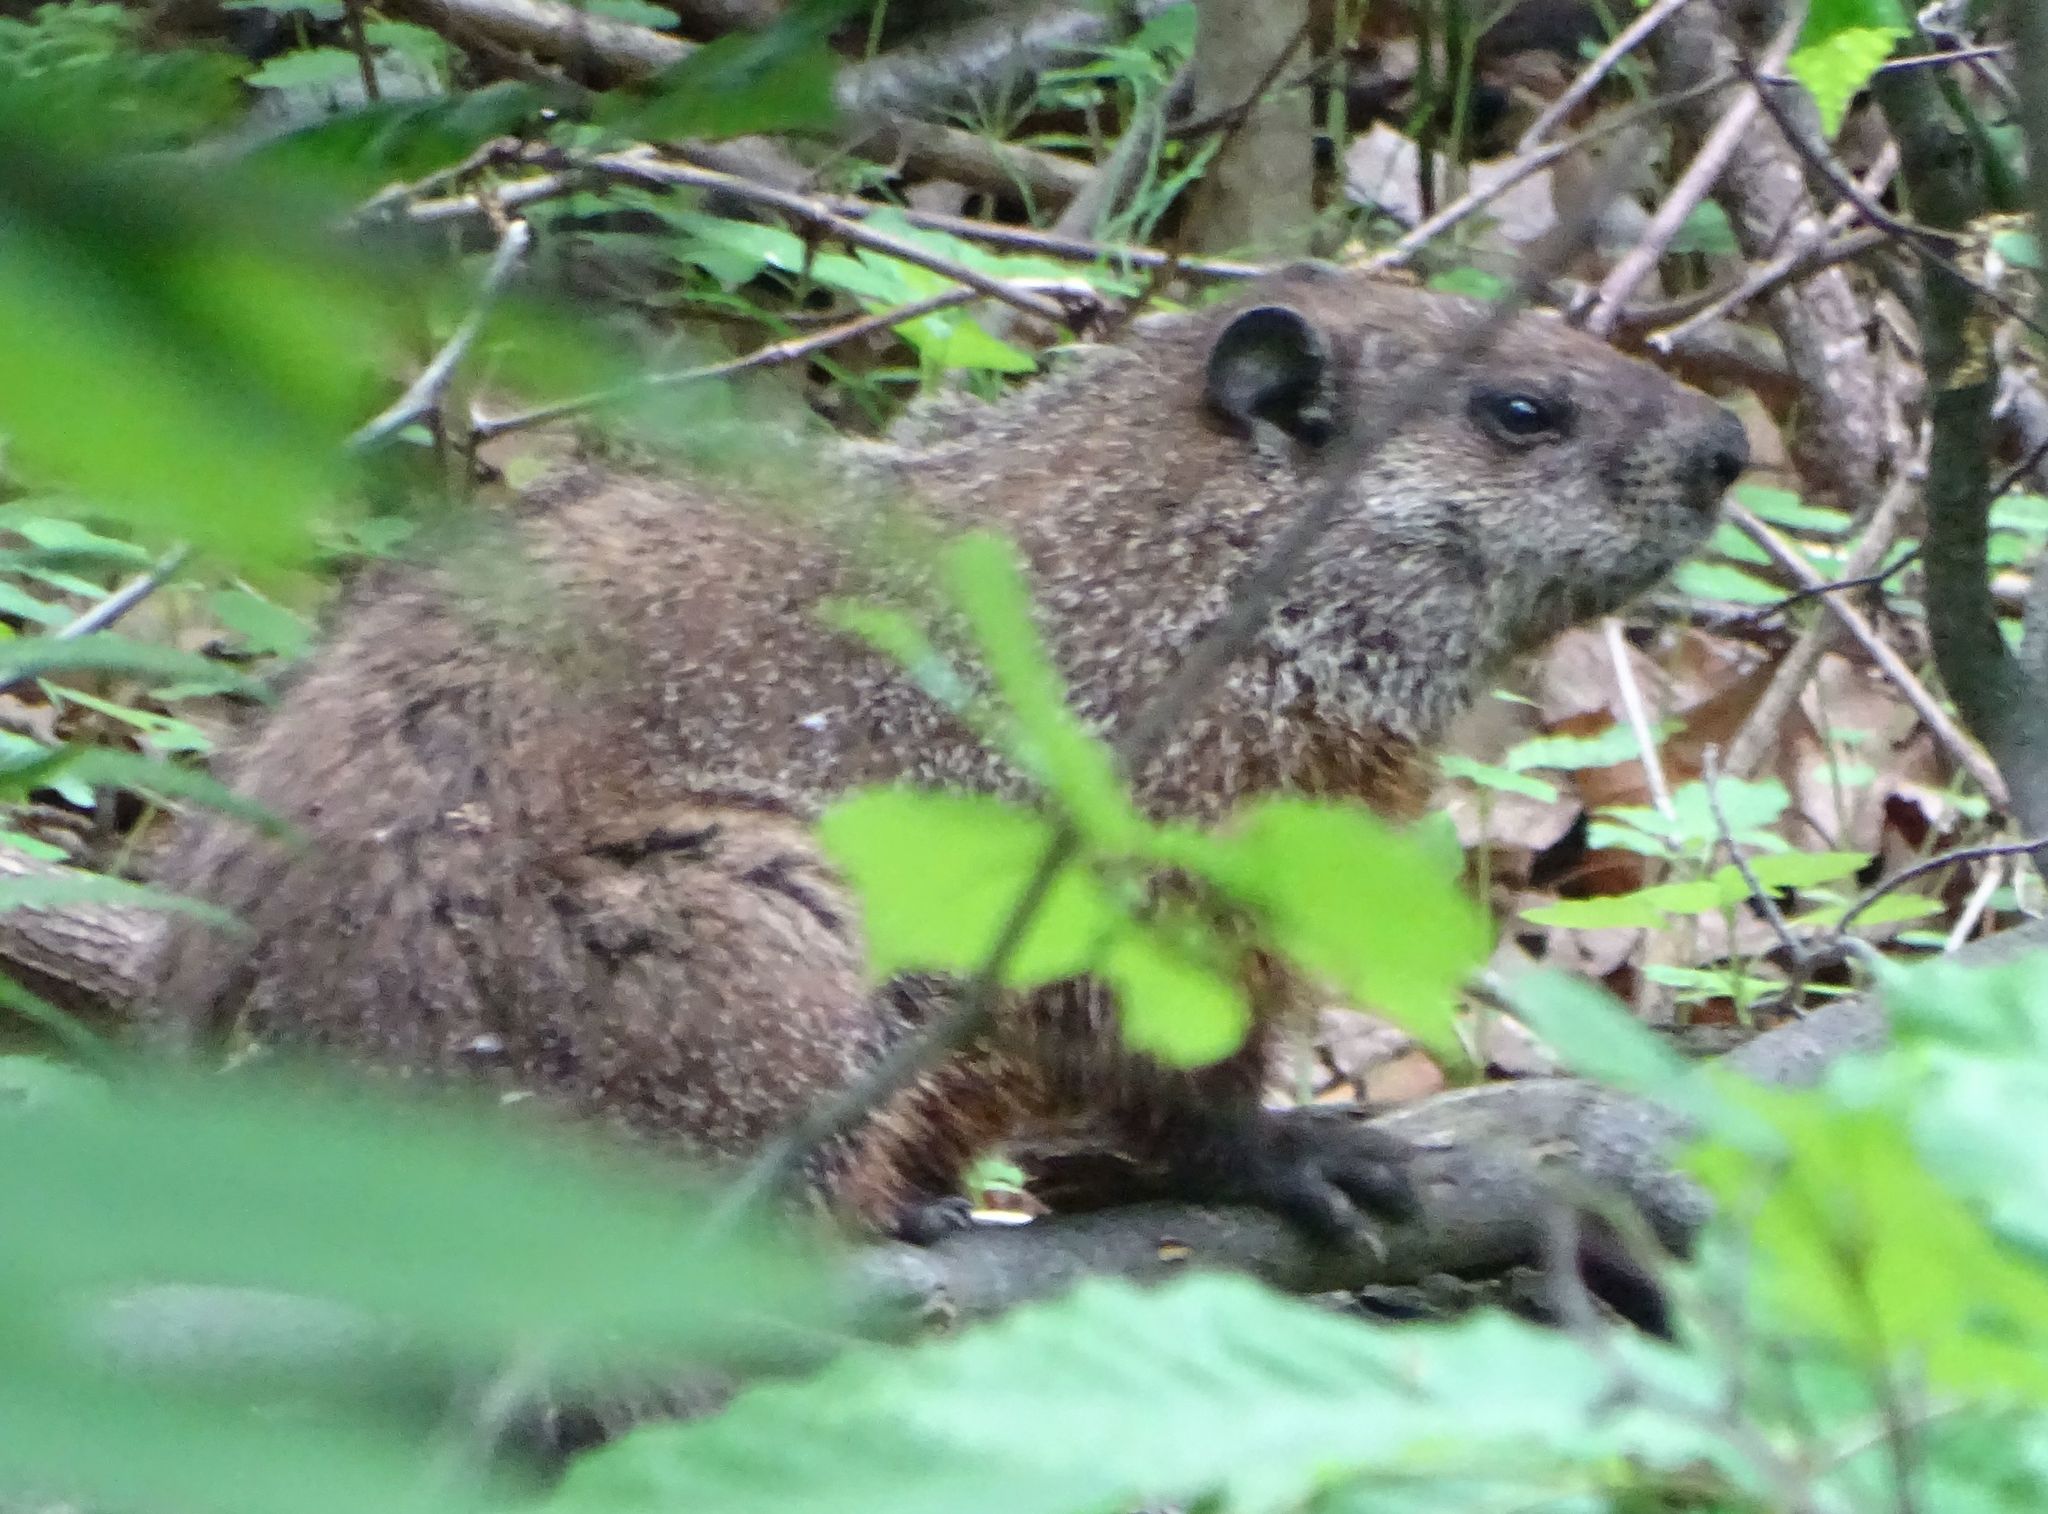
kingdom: Animalia
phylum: Chordata
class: Mammalia
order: Rodentia
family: Sciuridae
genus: Marmota
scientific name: Marmota monax
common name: Groundhog
